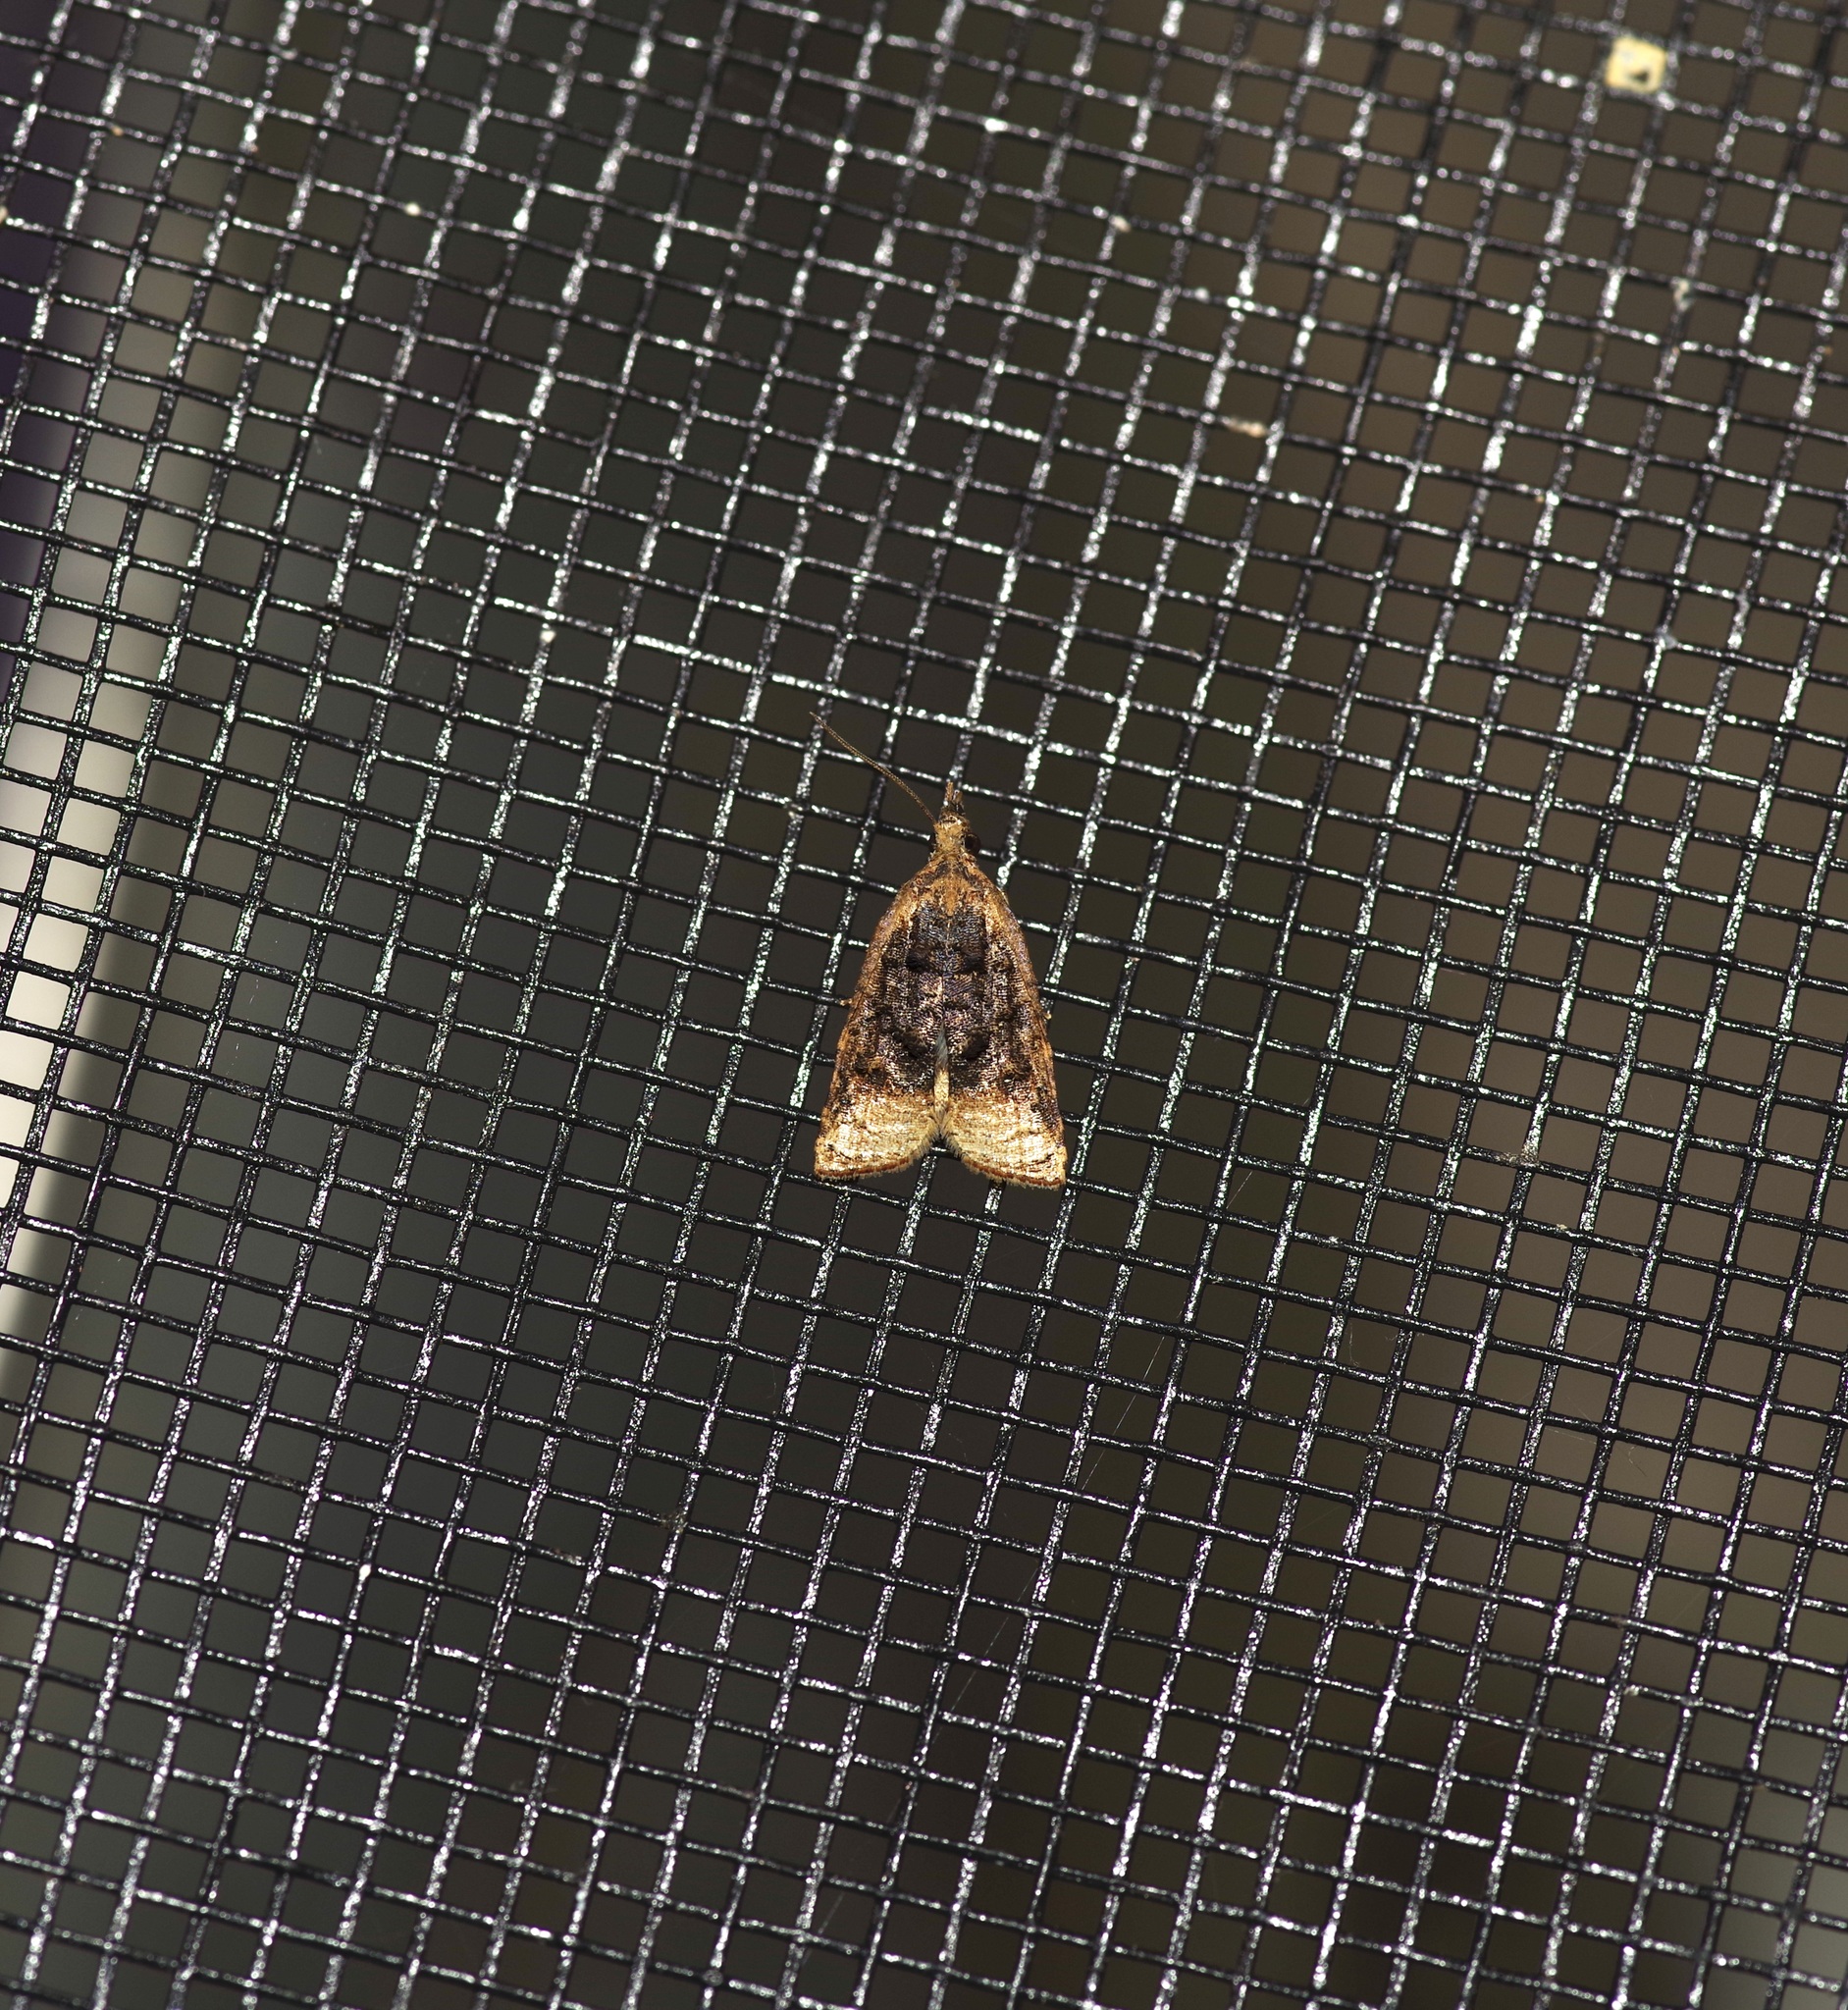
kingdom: Animalia
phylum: Arthropoda
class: Insecta
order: Lepidoptera
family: Tortricidae
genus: Platynota
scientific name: Platynota flavedana
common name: Black-shaded platynota moth
